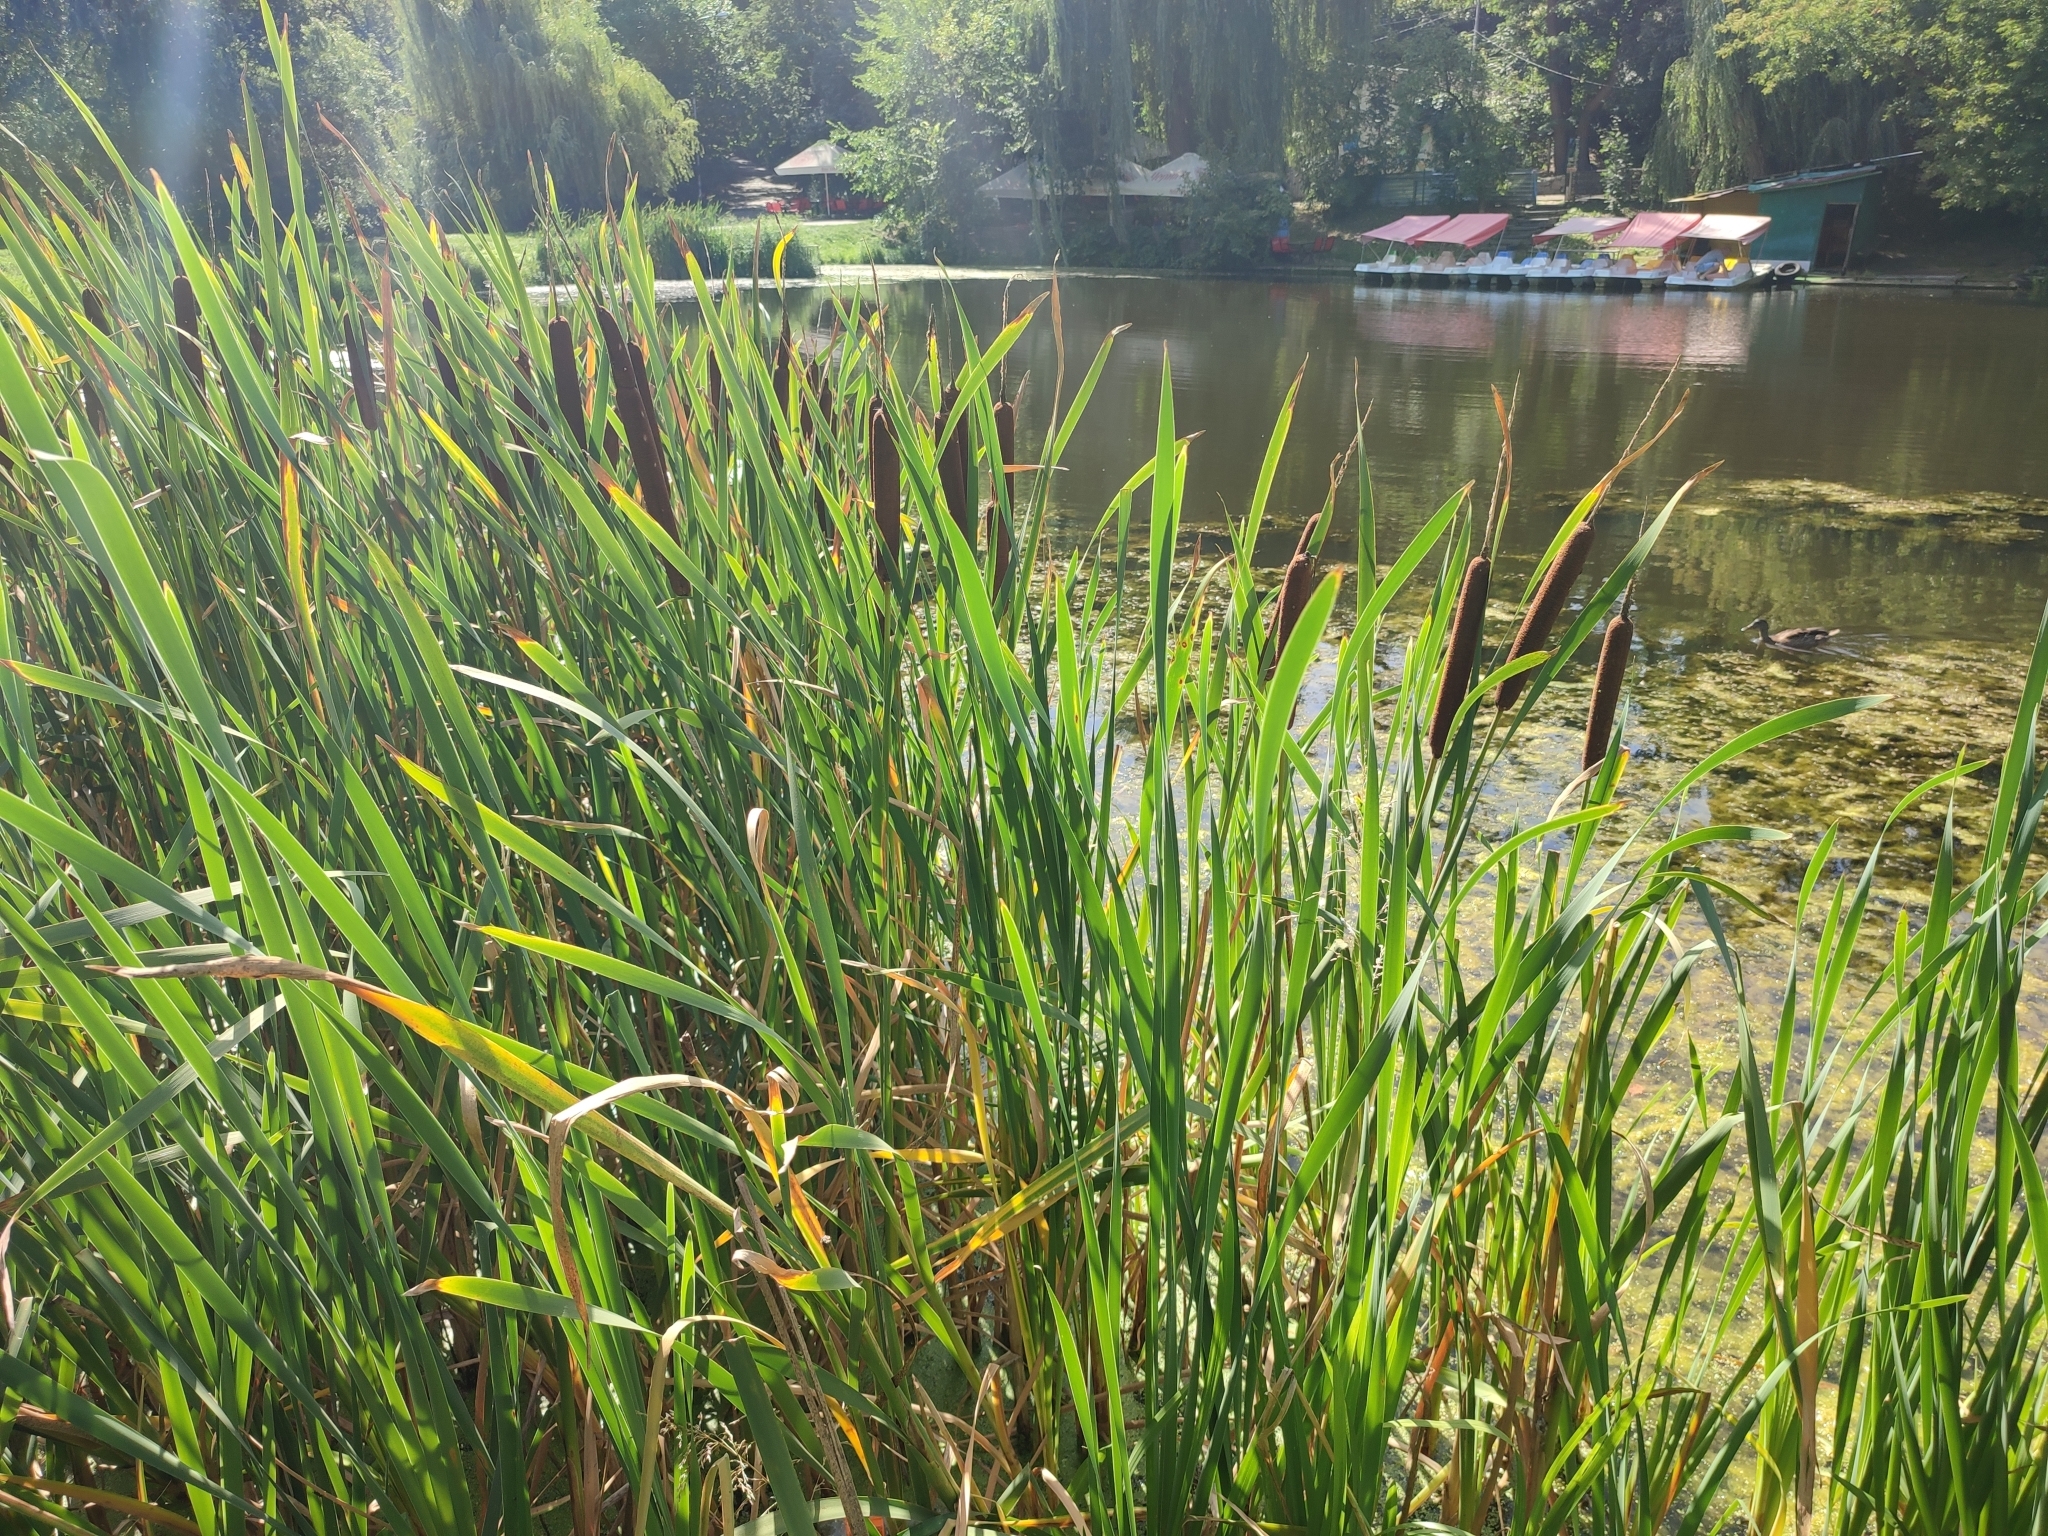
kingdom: Plantae
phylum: Tracheophyta
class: Liliopsida
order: Poales
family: Typhaceae
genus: Typha
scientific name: Typha latifolia
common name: Broadleaf cattail
